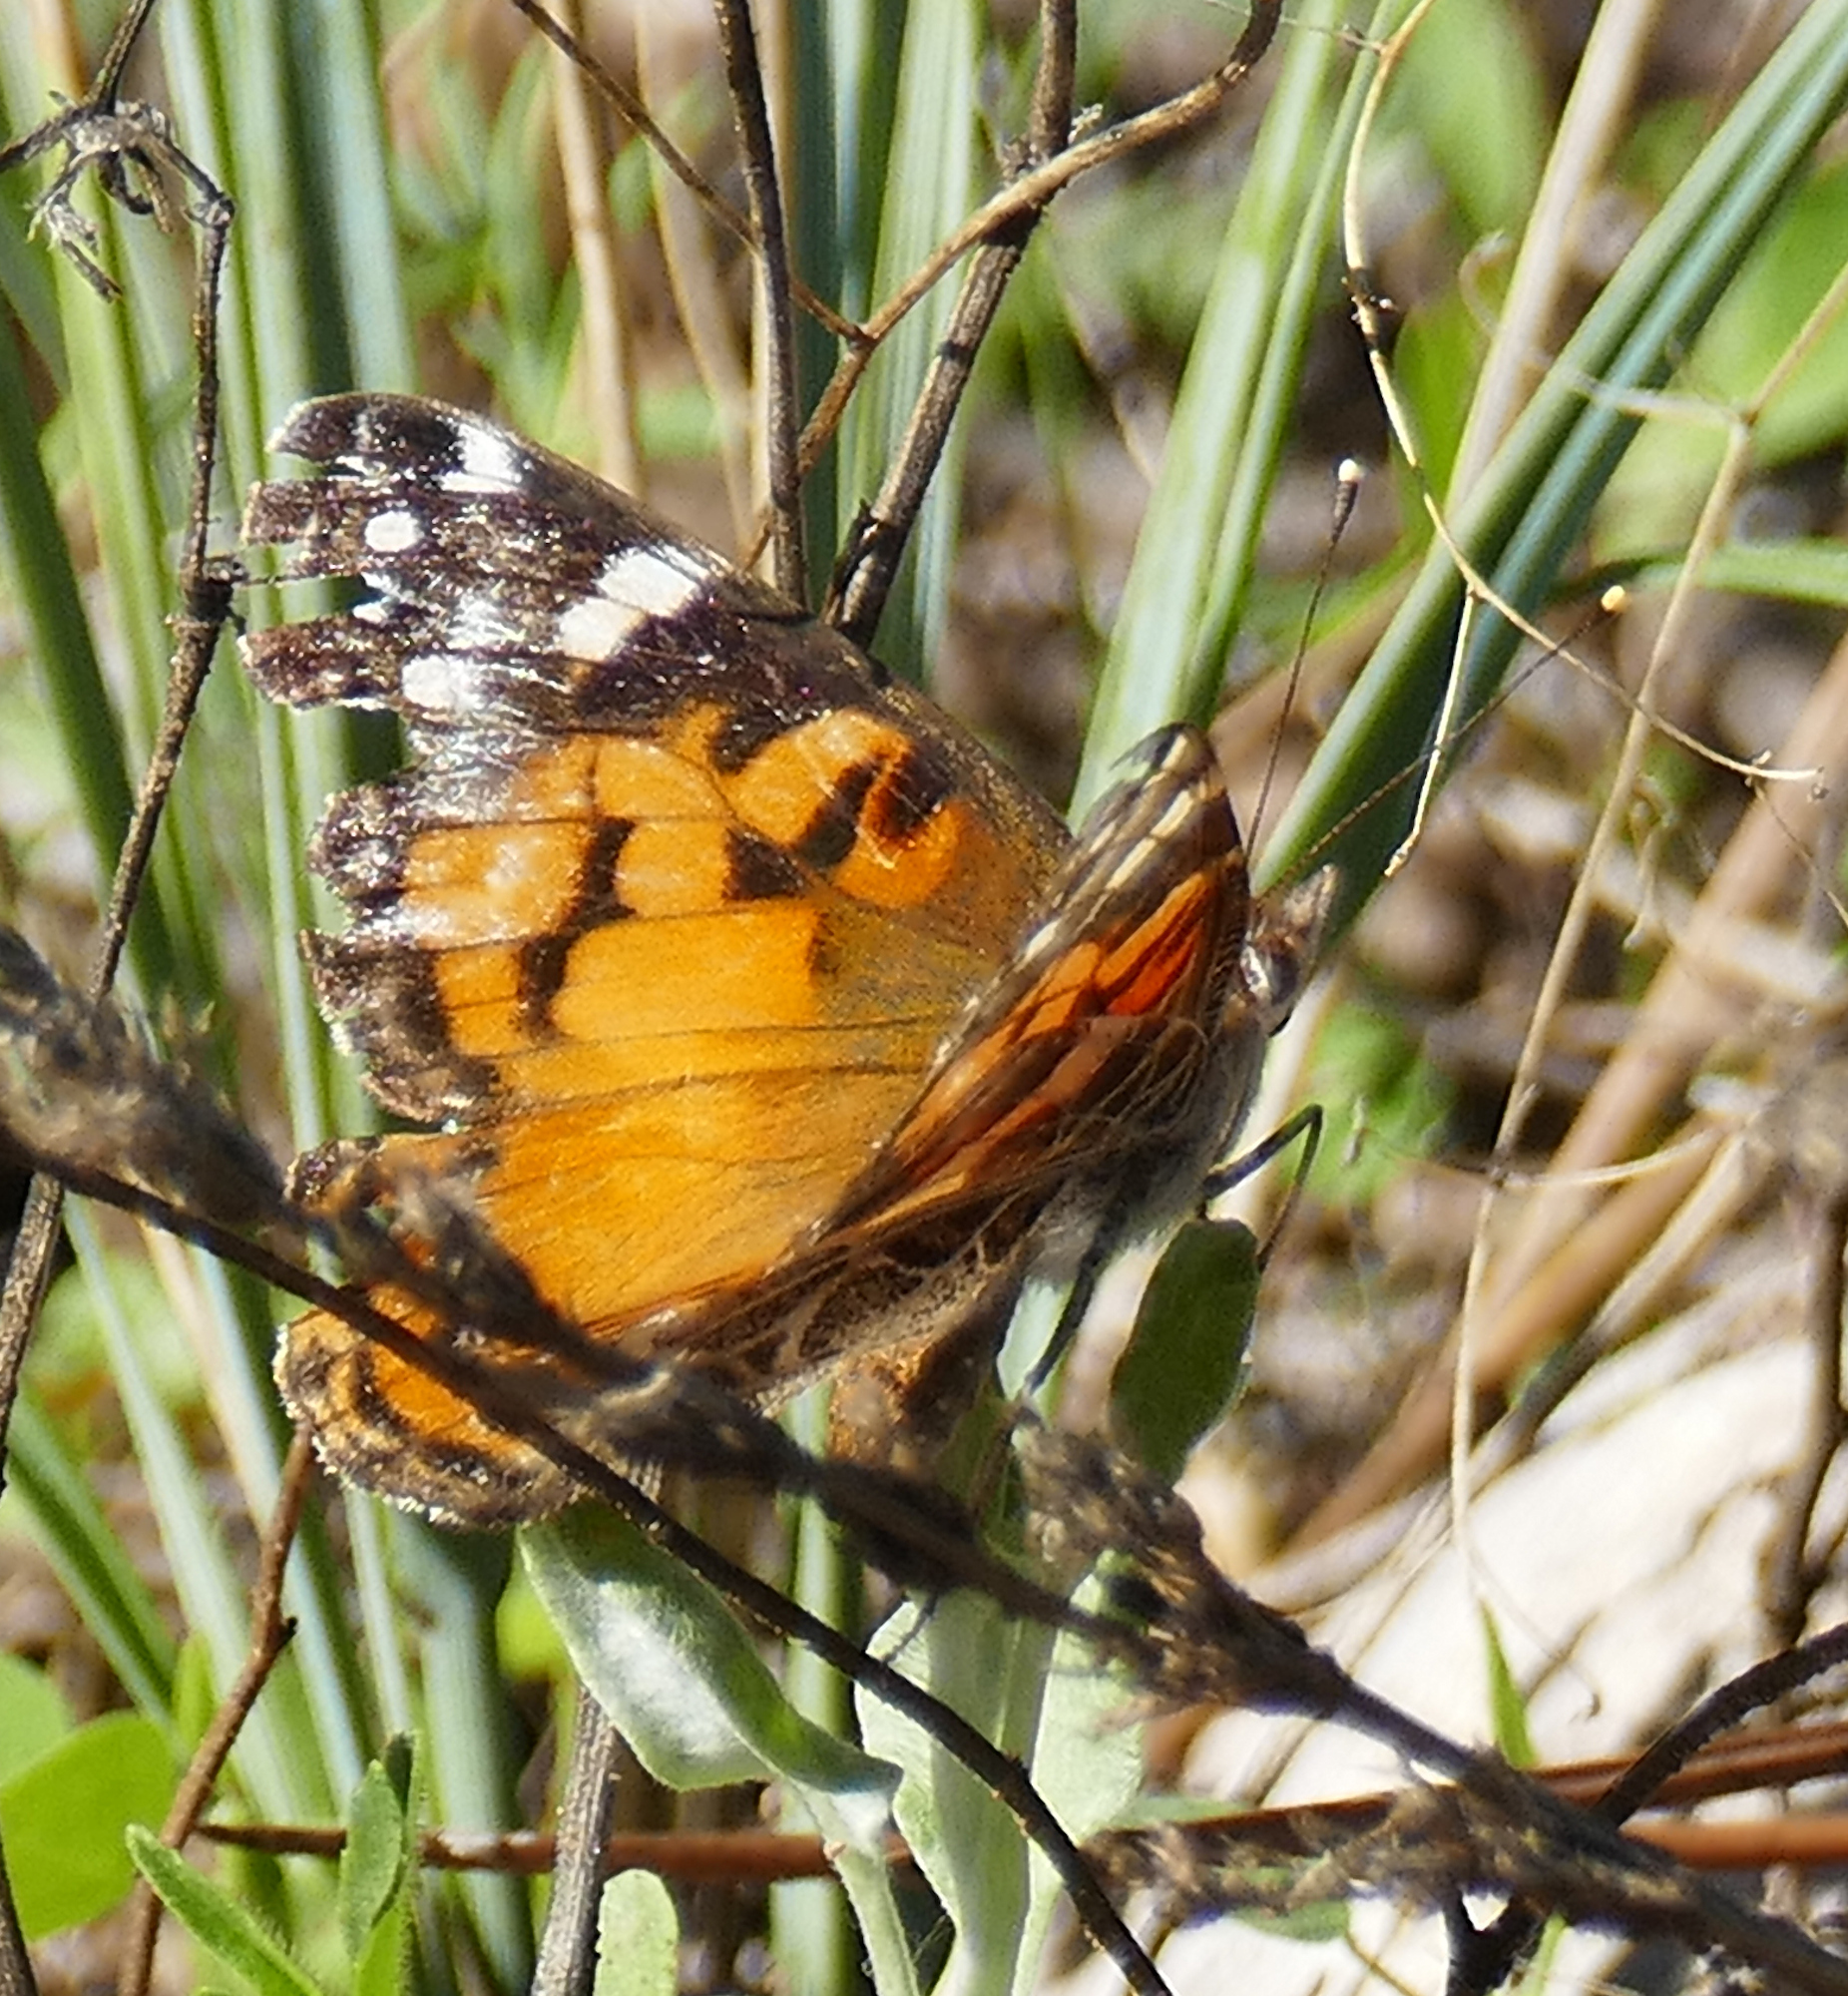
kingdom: Animalia
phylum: Arthropoda
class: Insecta
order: Lepidoptera
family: Nymphalidae
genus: Vanessa
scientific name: Vanessa virginiensis
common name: American lady
